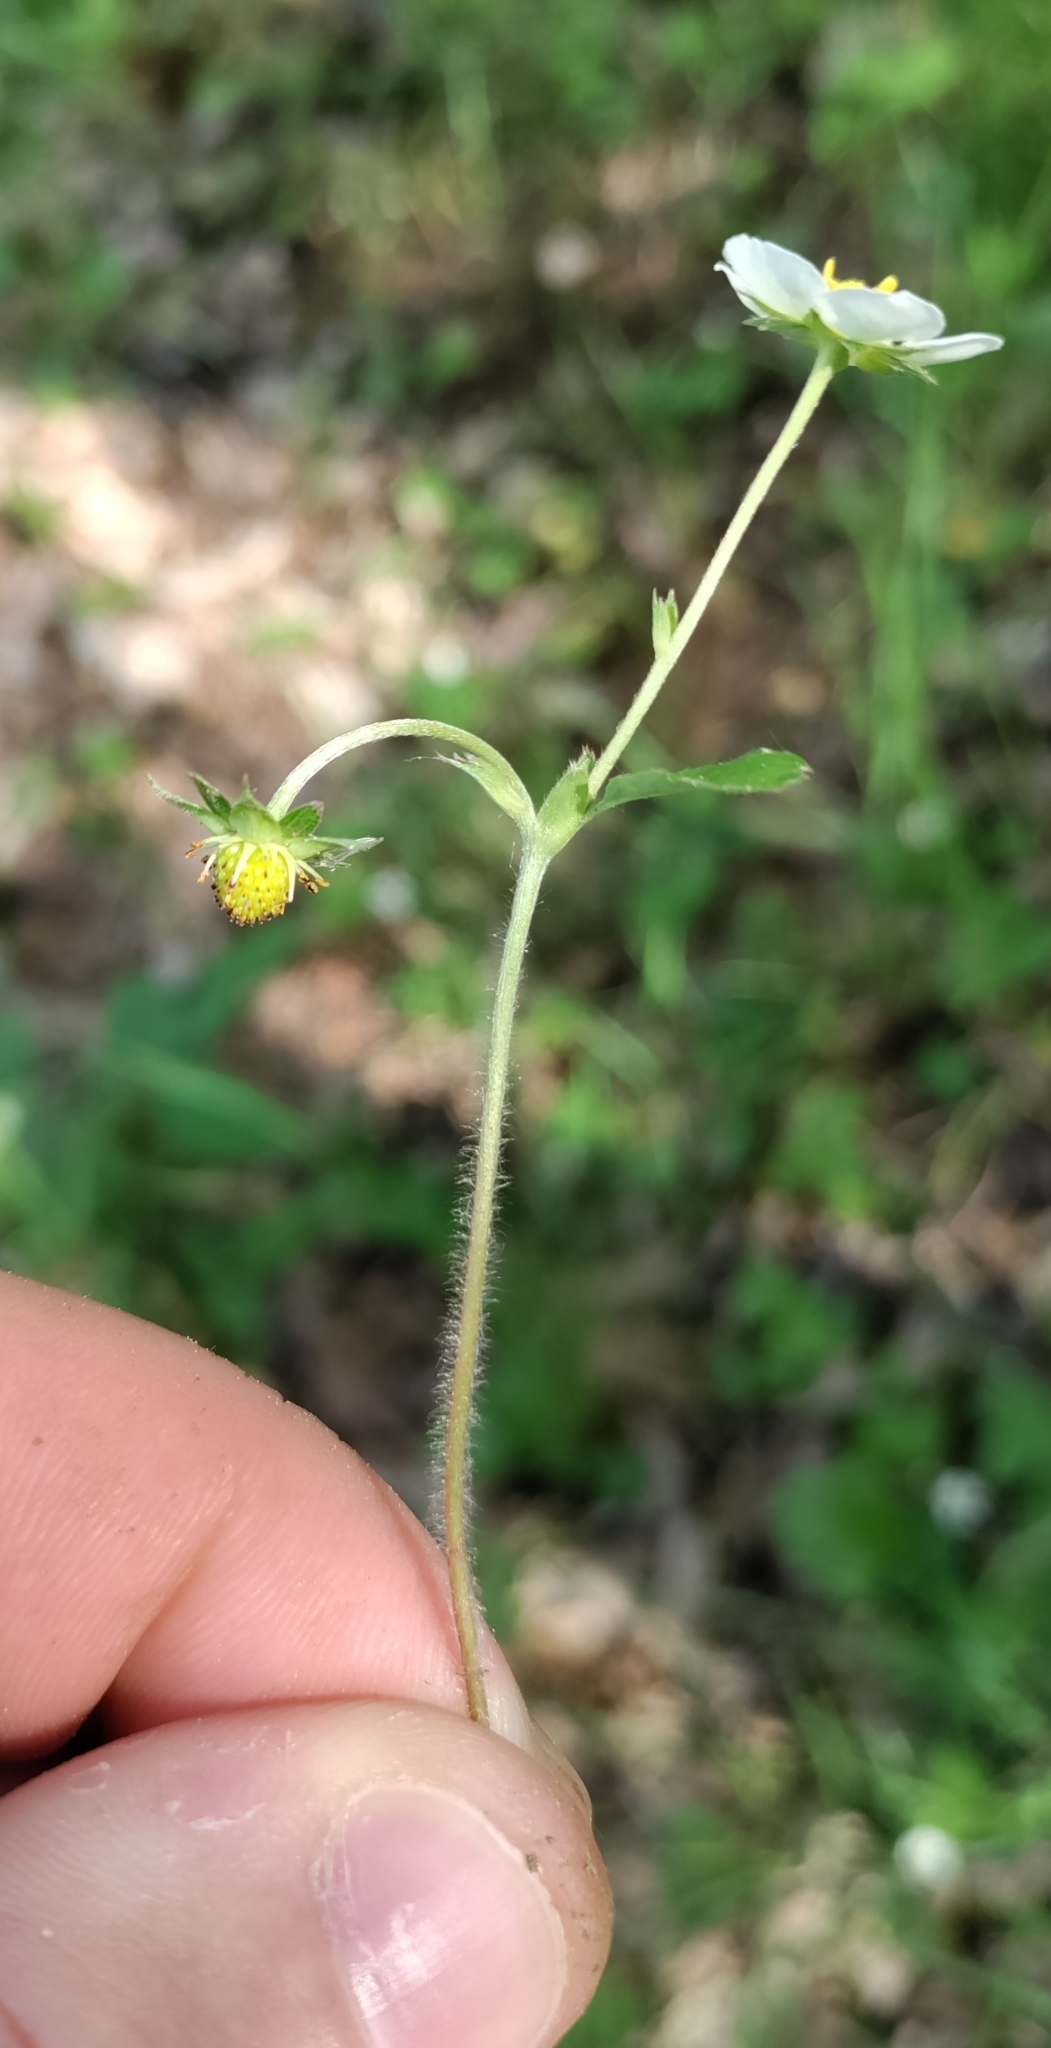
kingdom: Plantae
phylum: Tracheophyta
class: Magnoliopsida
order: Rosales
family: Rosaceae
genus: Fragaria
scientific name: Fragaria vesca
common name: Wild strawberry
